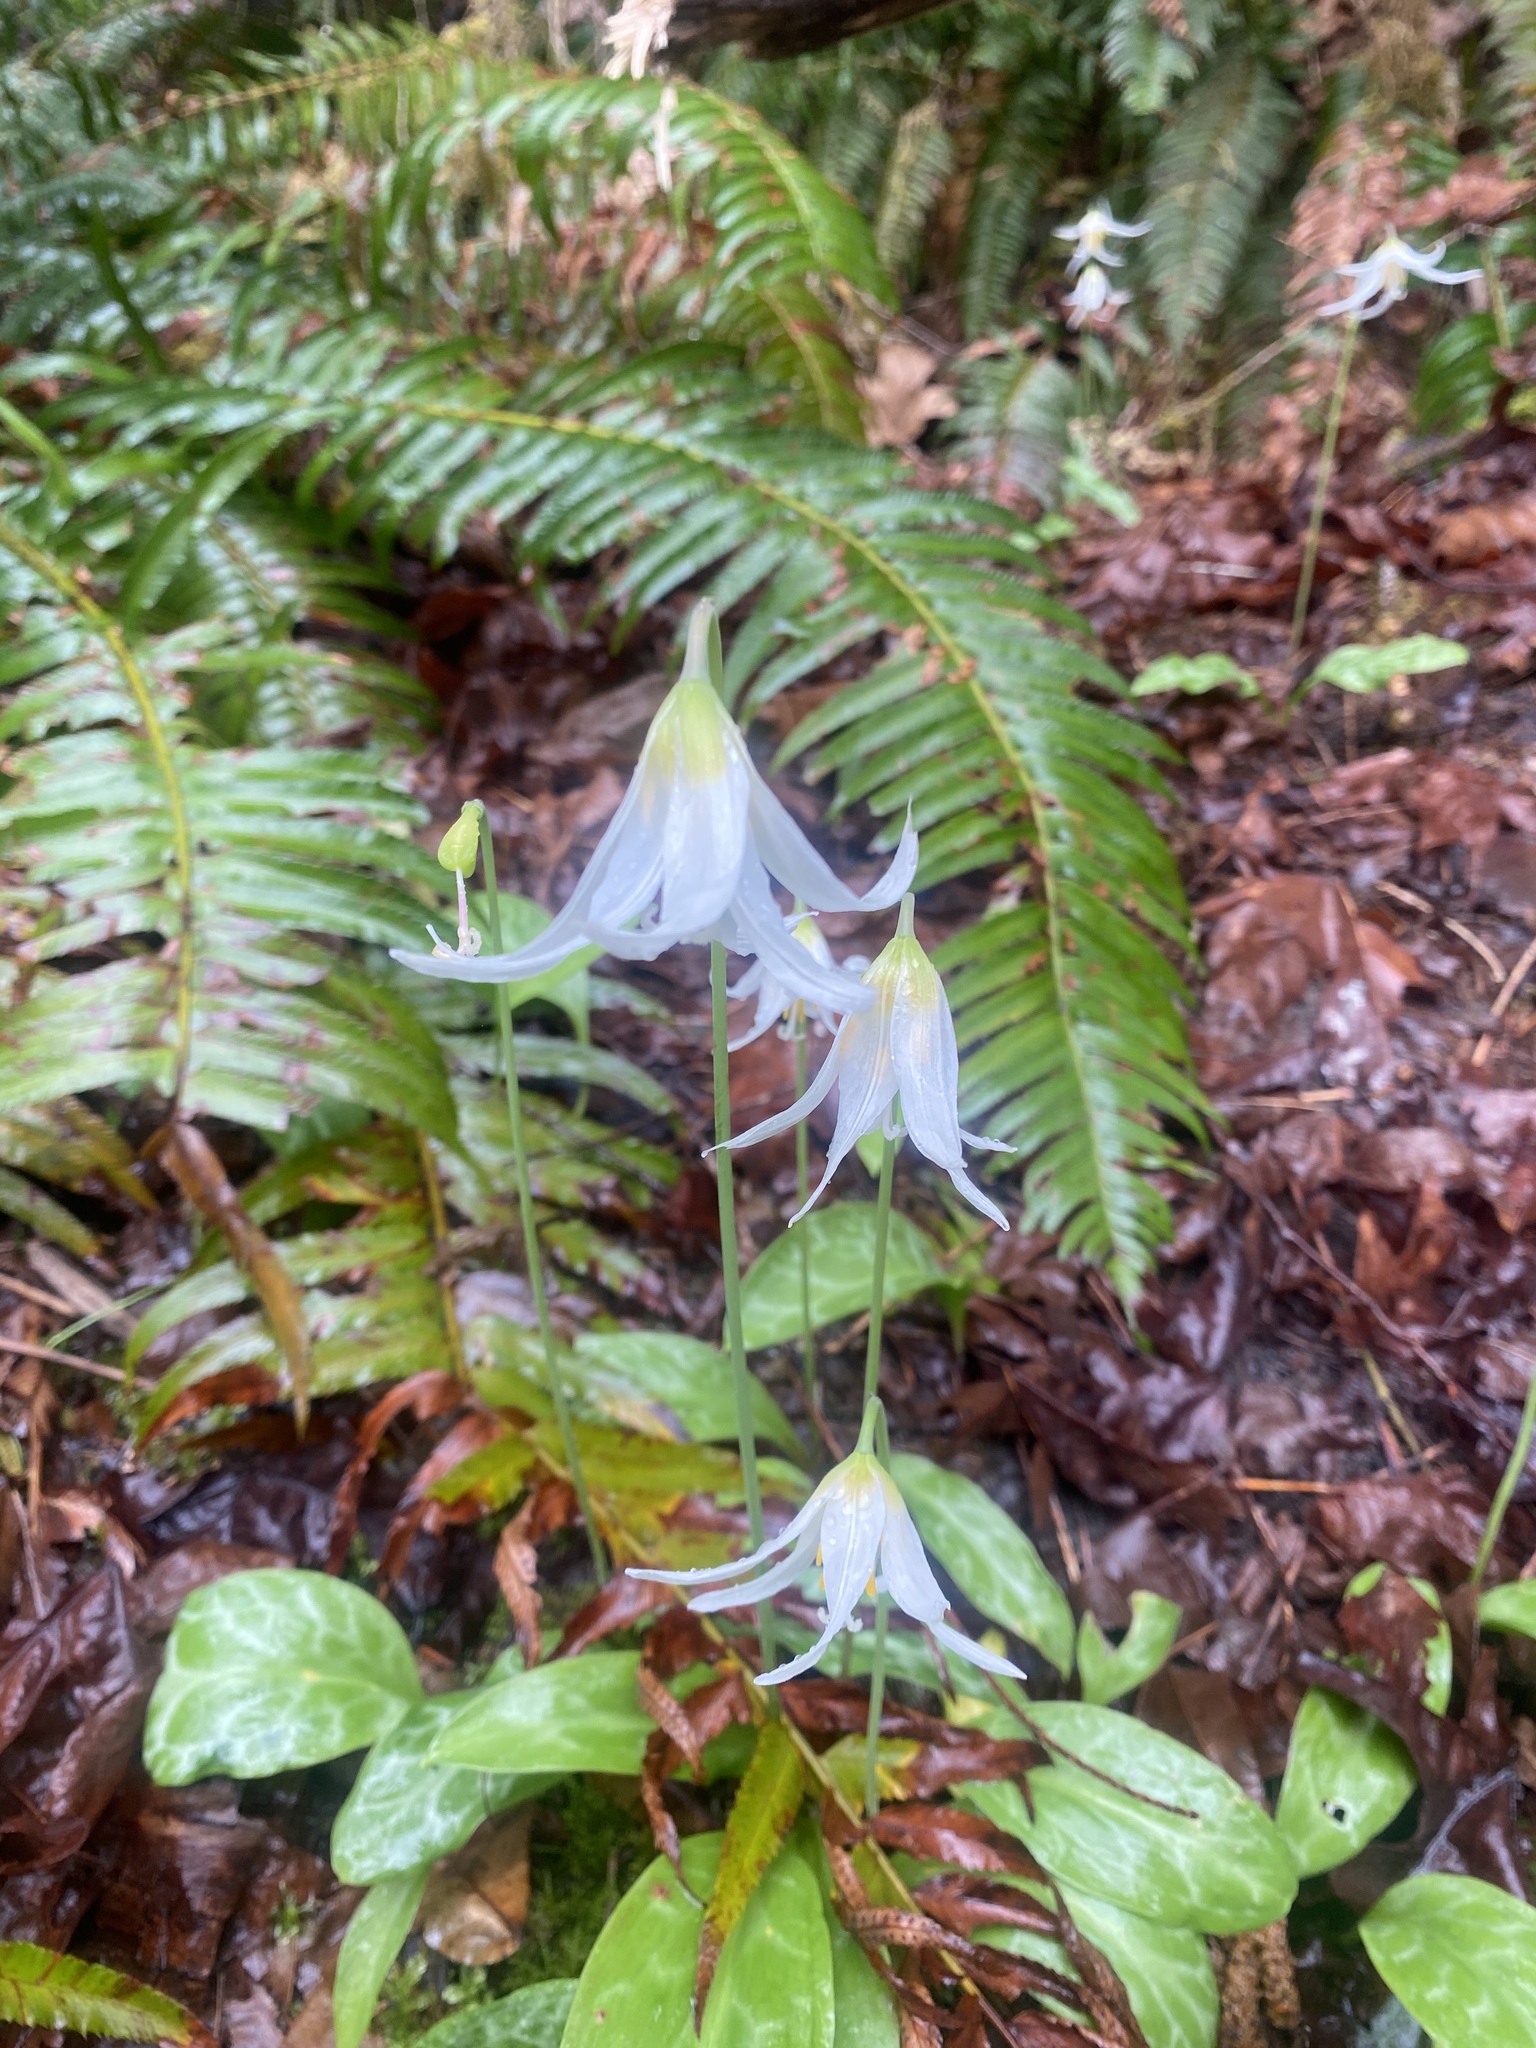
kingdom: Plantae
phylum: Tracheophyta
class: Liliopsida
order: Liliales
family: Liliaceae
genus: Erythronium
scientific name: Erythronium oregonum
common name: Giant adder's-tongue
